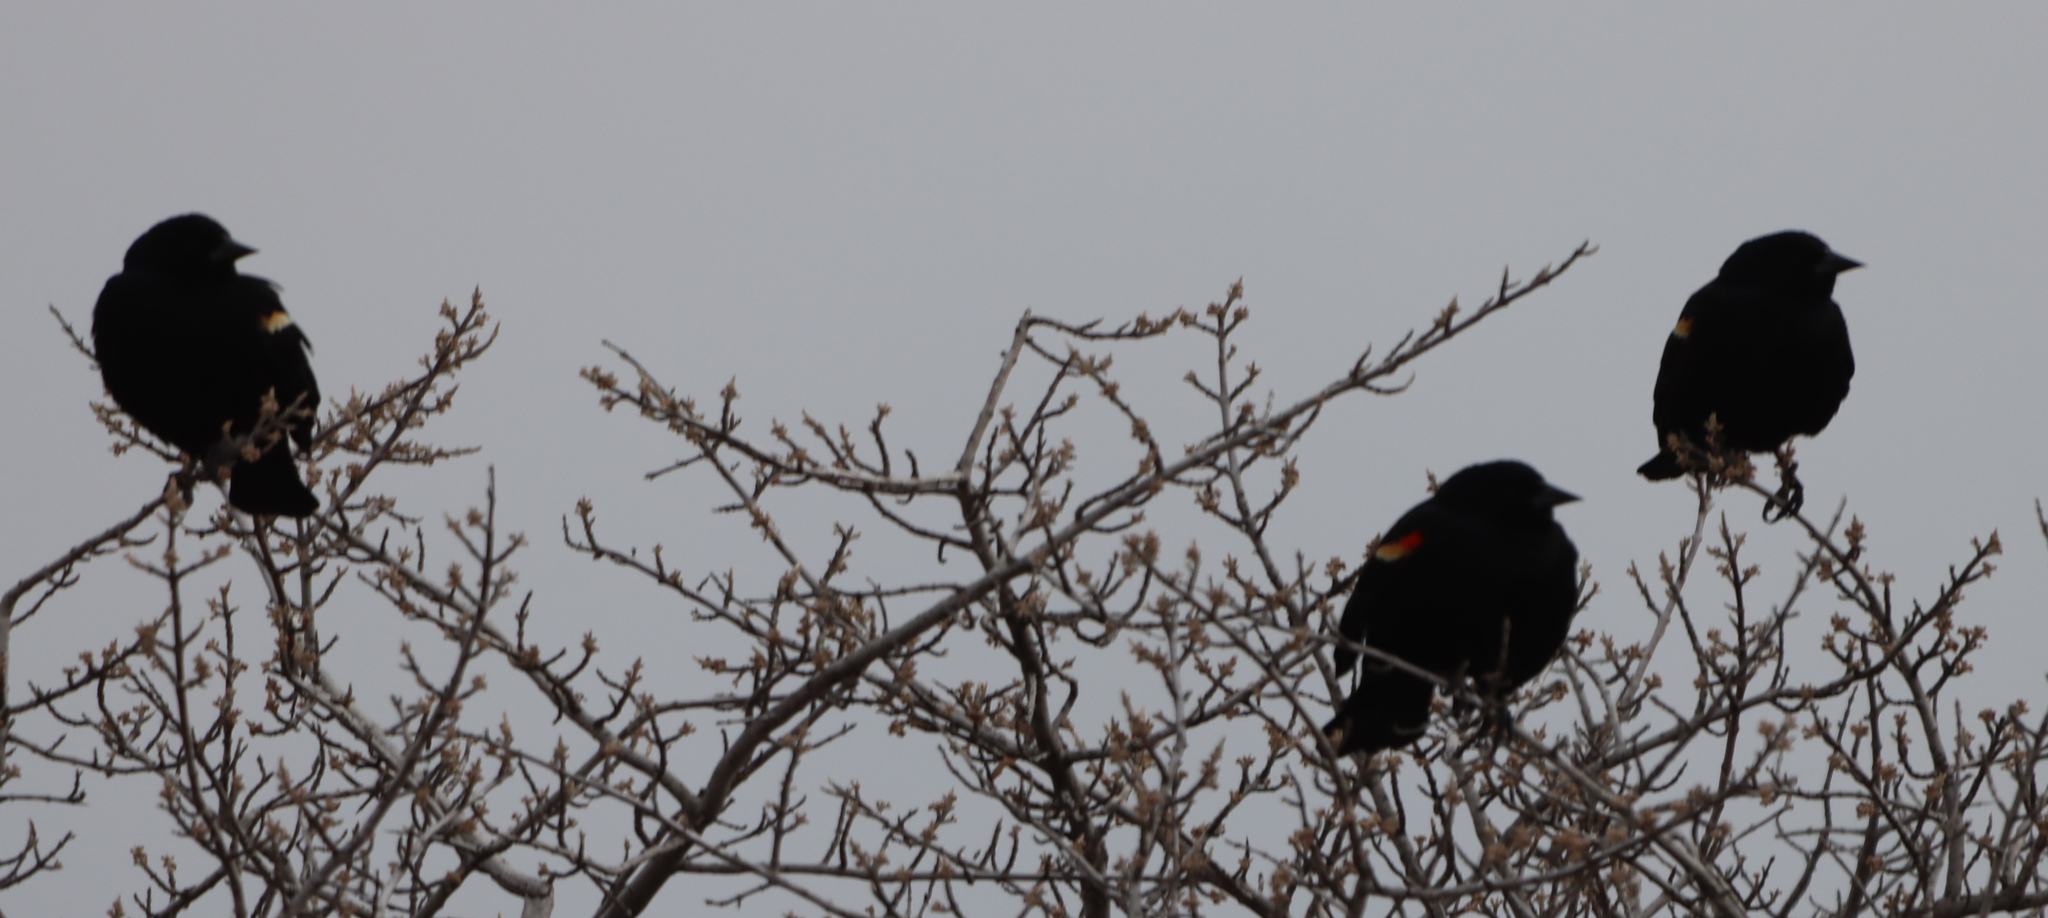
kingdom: Animalia
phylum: Chordata
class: Aves
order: Passeriformes
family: Icteridae
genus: Agelaius
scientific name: Agelaius phoeniceus
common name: Red-winged blackbird
